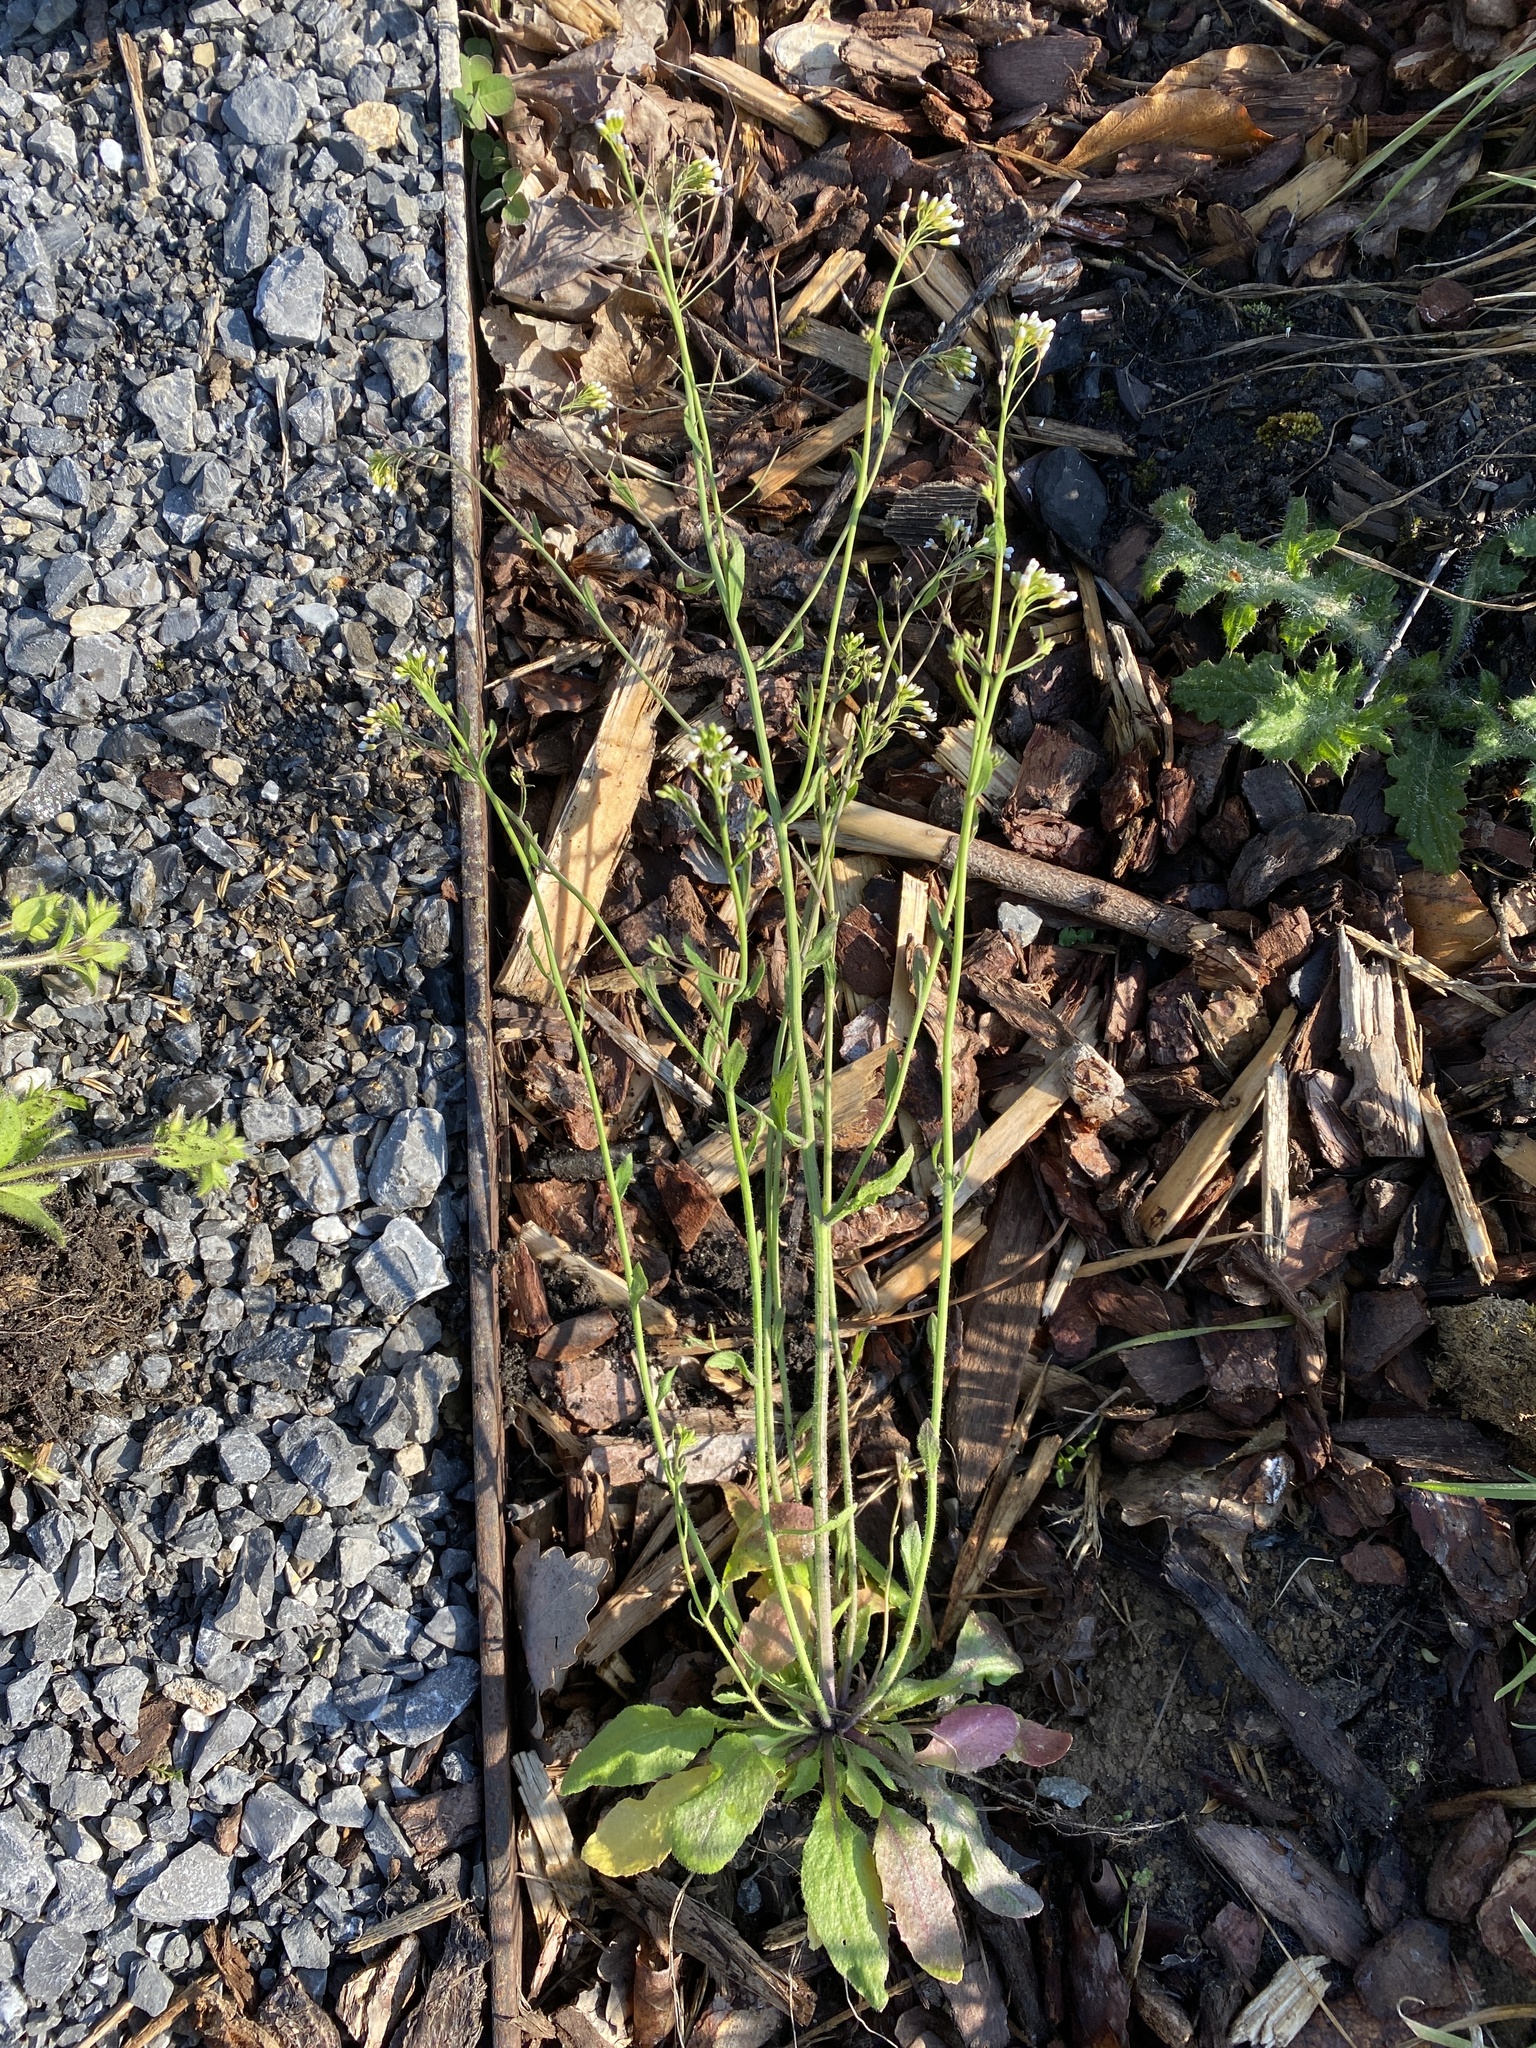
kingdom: Plantae
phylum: Tracheophyta
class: Magnoliopsida
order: Brassicales
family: Brassicaceae
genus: Arabidopsis
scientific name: Arabidopsis thaliana
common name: Thale cress
